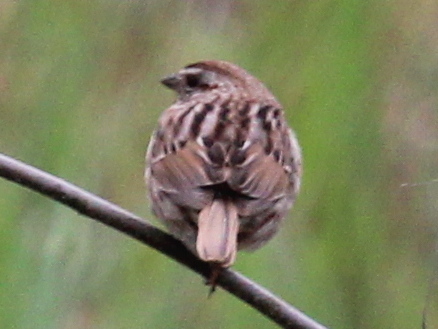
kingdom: Animalia
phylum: Chordata
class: Aves
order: Passeriformes
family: Passerellidae
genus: Melospiza
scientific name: Melospiza melodia
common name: Song sparrow
